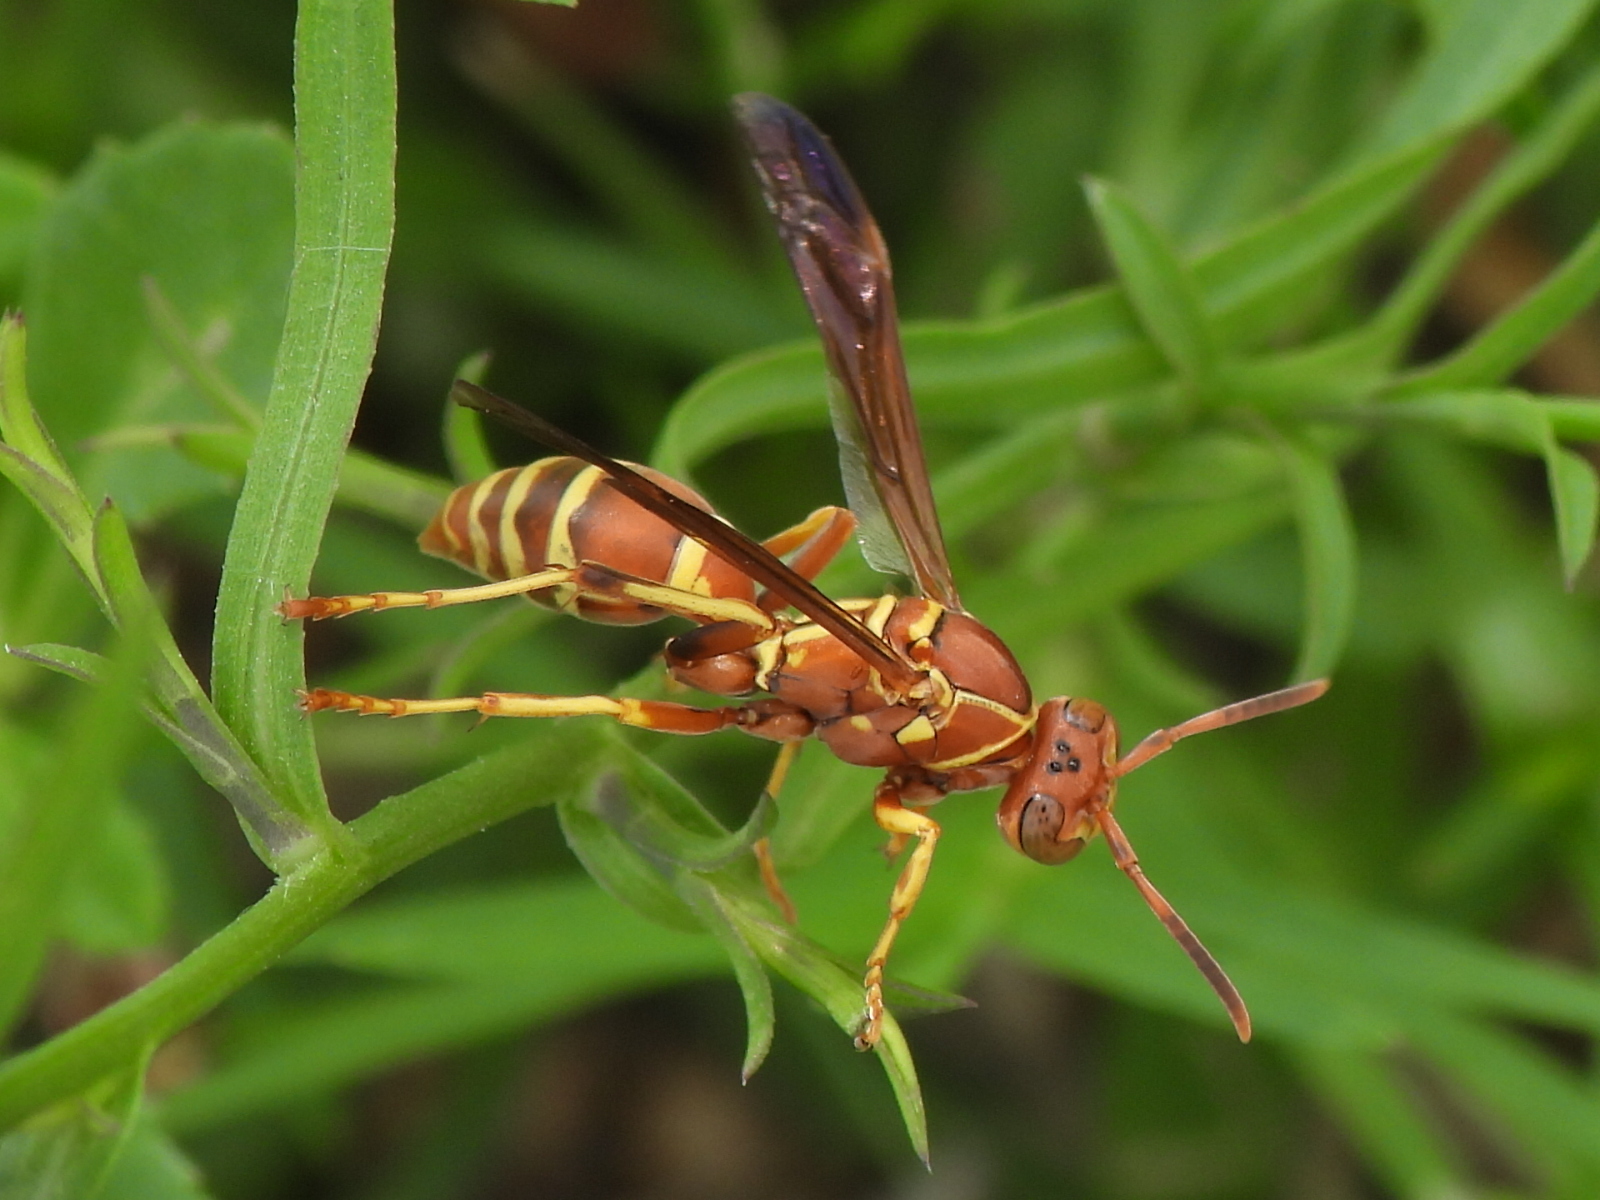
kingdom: Animalia
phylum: Arthropoda
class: Insecta
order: Hymenoptera
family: Eumenidae
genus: Polistes
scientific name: Polistes dorsalis
